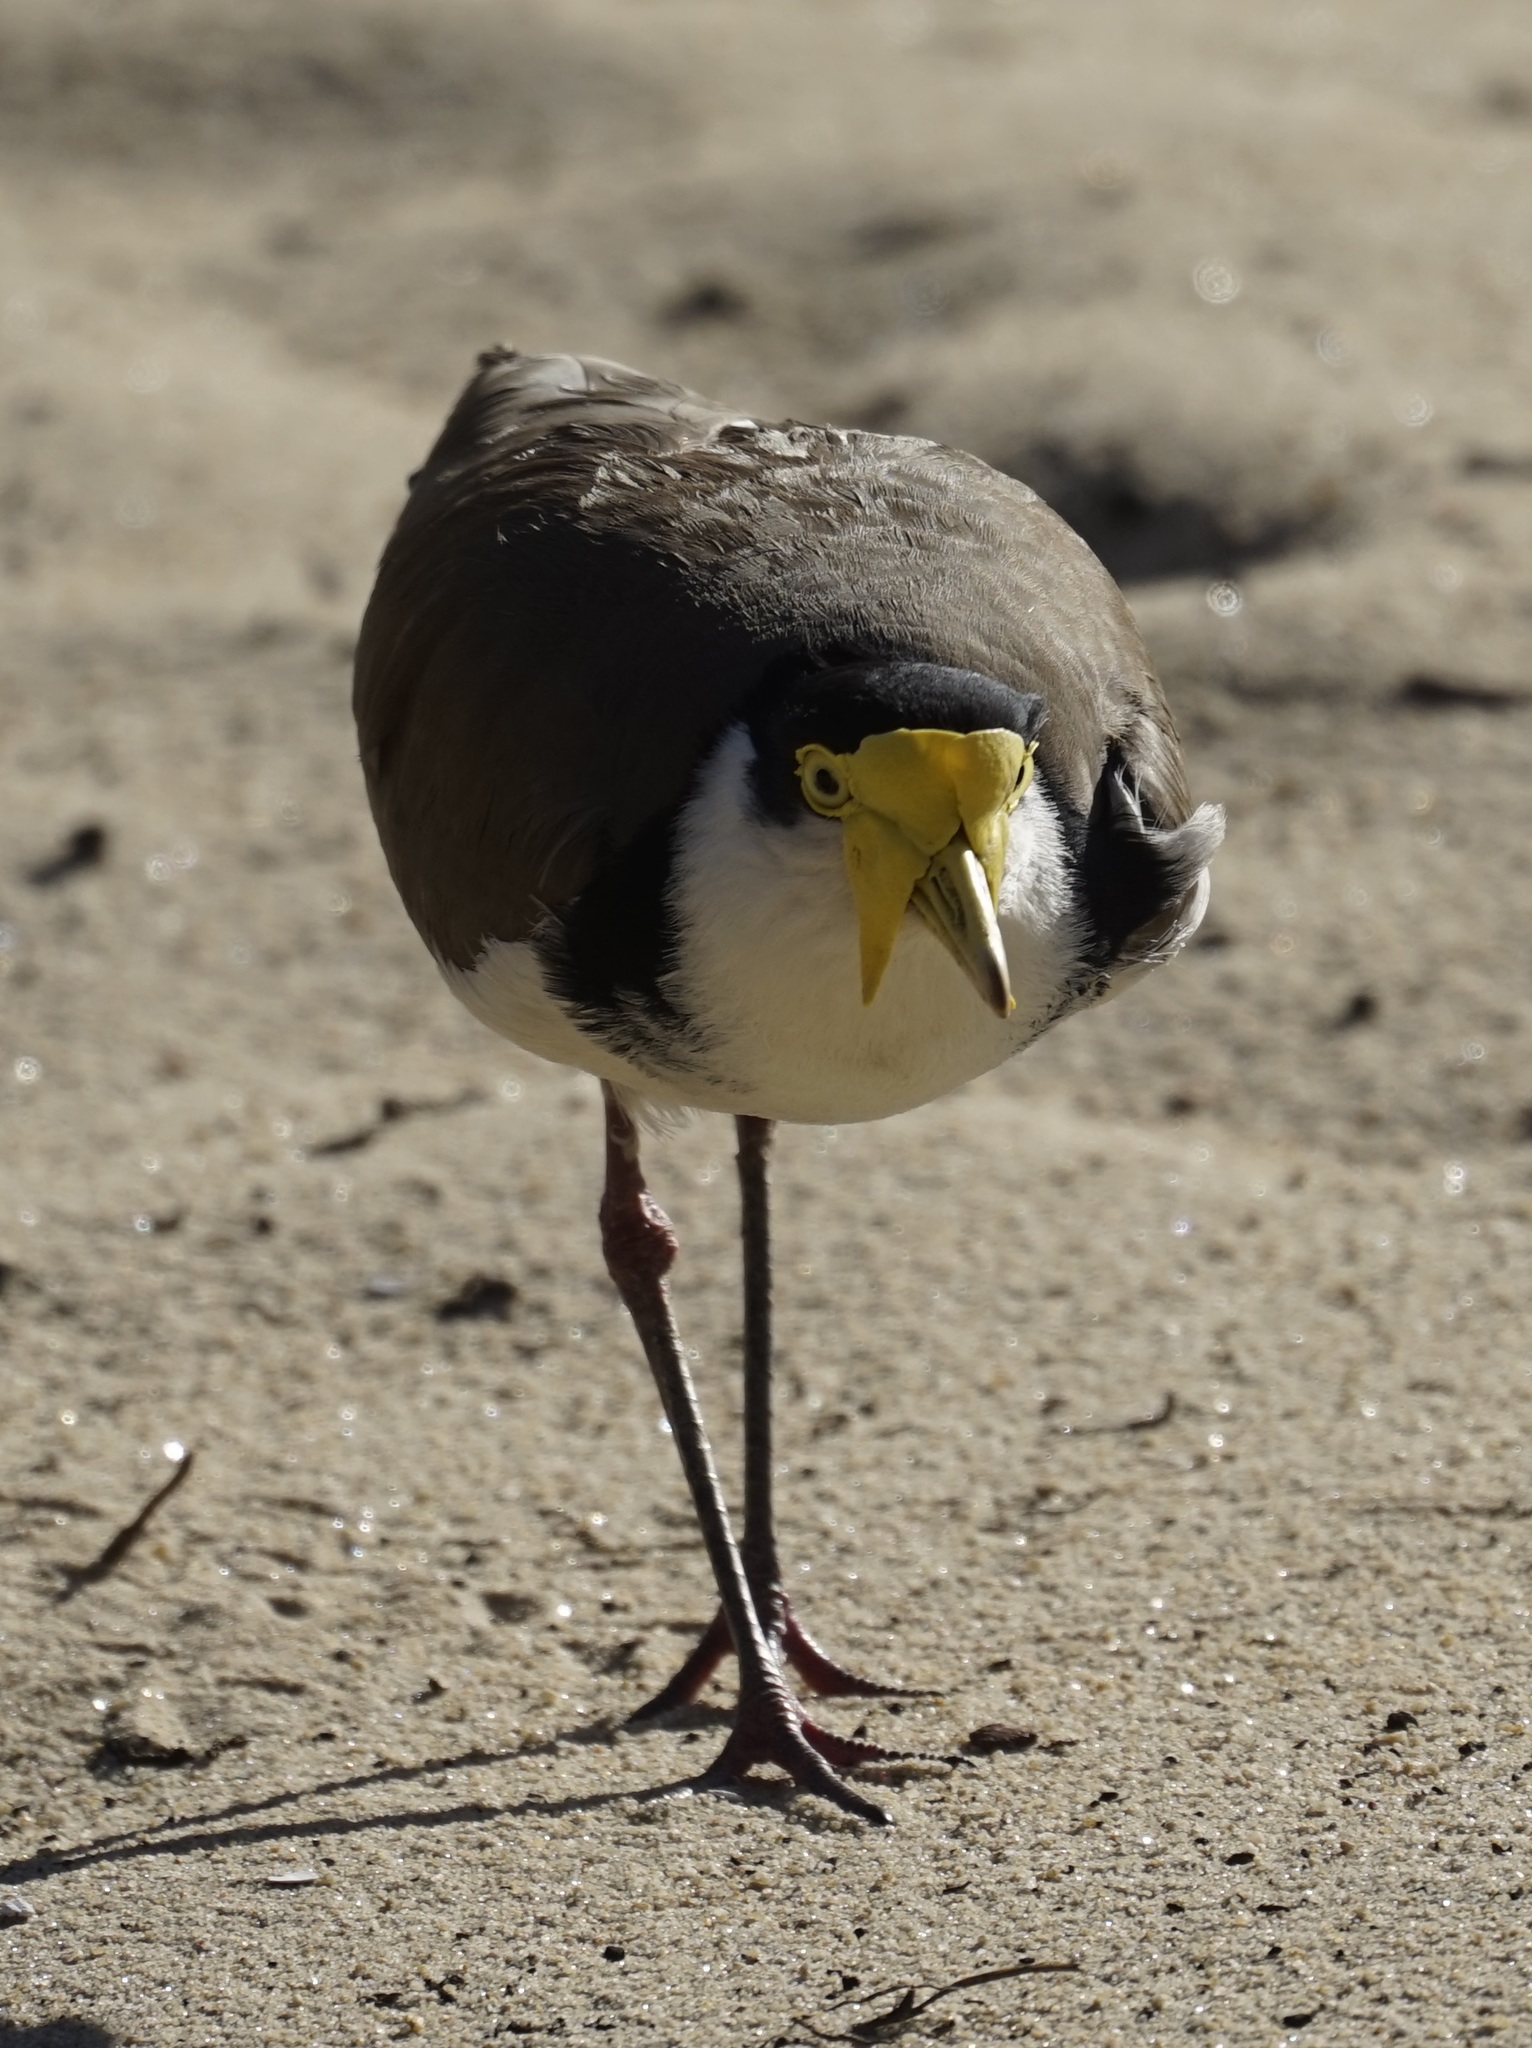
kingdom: Animalia
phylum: Chordata
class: Aves
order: Charadriiformes
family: Charadriidae
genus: Vanellus
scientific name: Vanellus miles
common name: Masked lapwing
